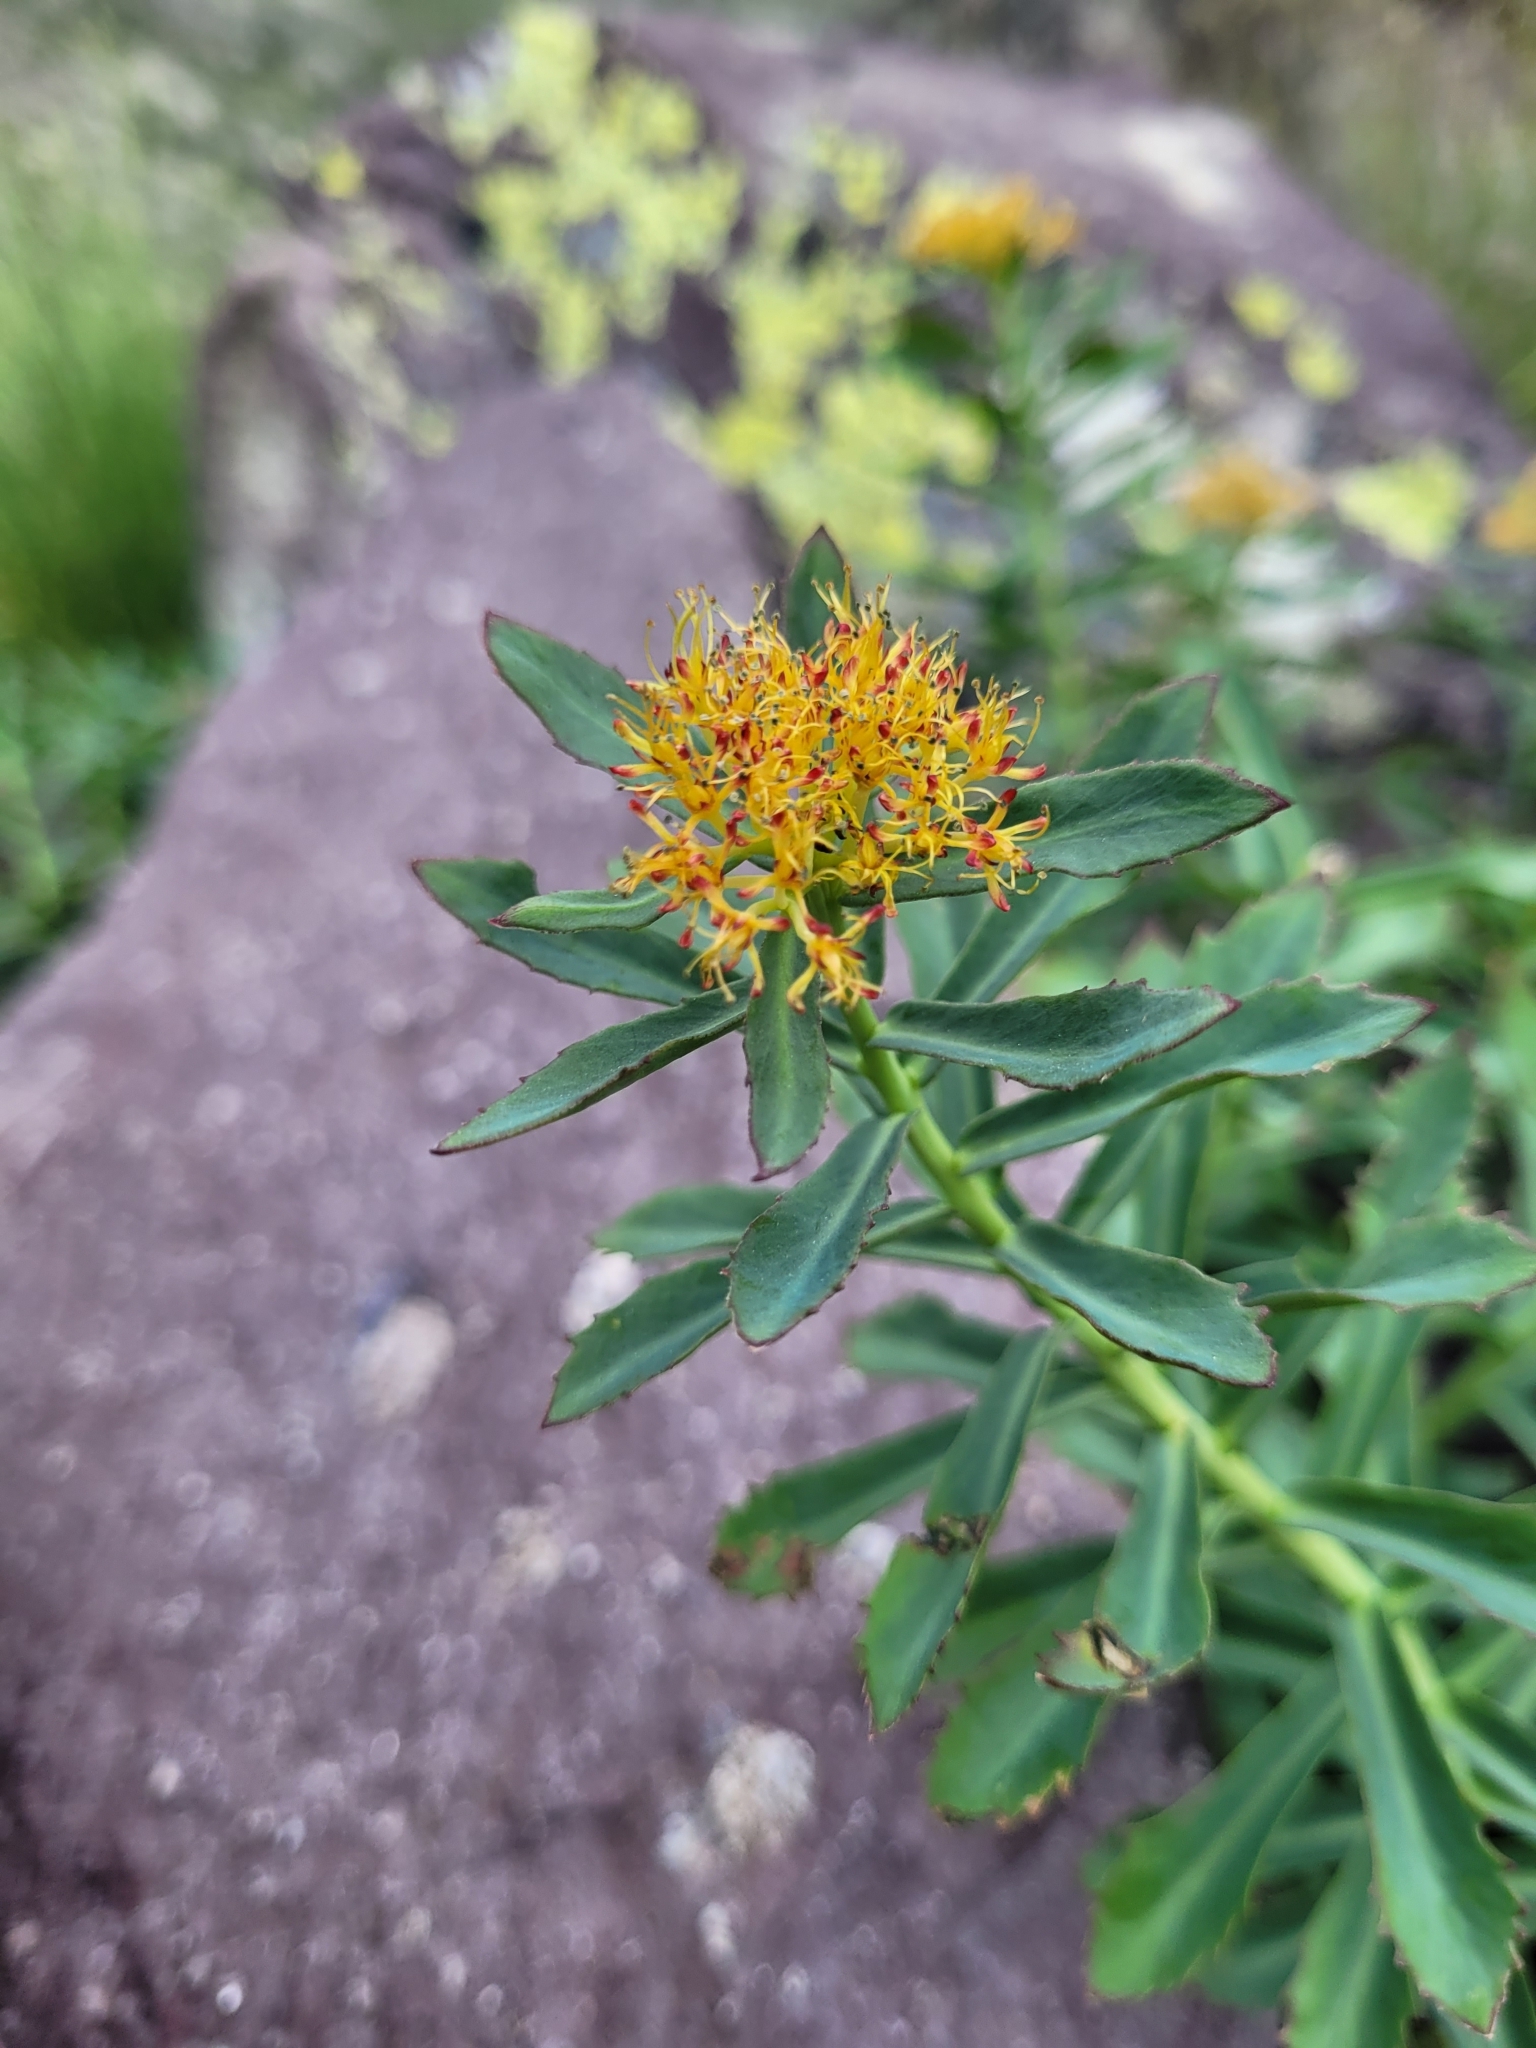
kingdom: Plantae
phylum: Tracheophyta
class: Magnoliopsida
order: Saxifragales
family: Crassulaceae
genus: Rhodiola
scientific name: Rhodiola rosea
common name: Roseroot
